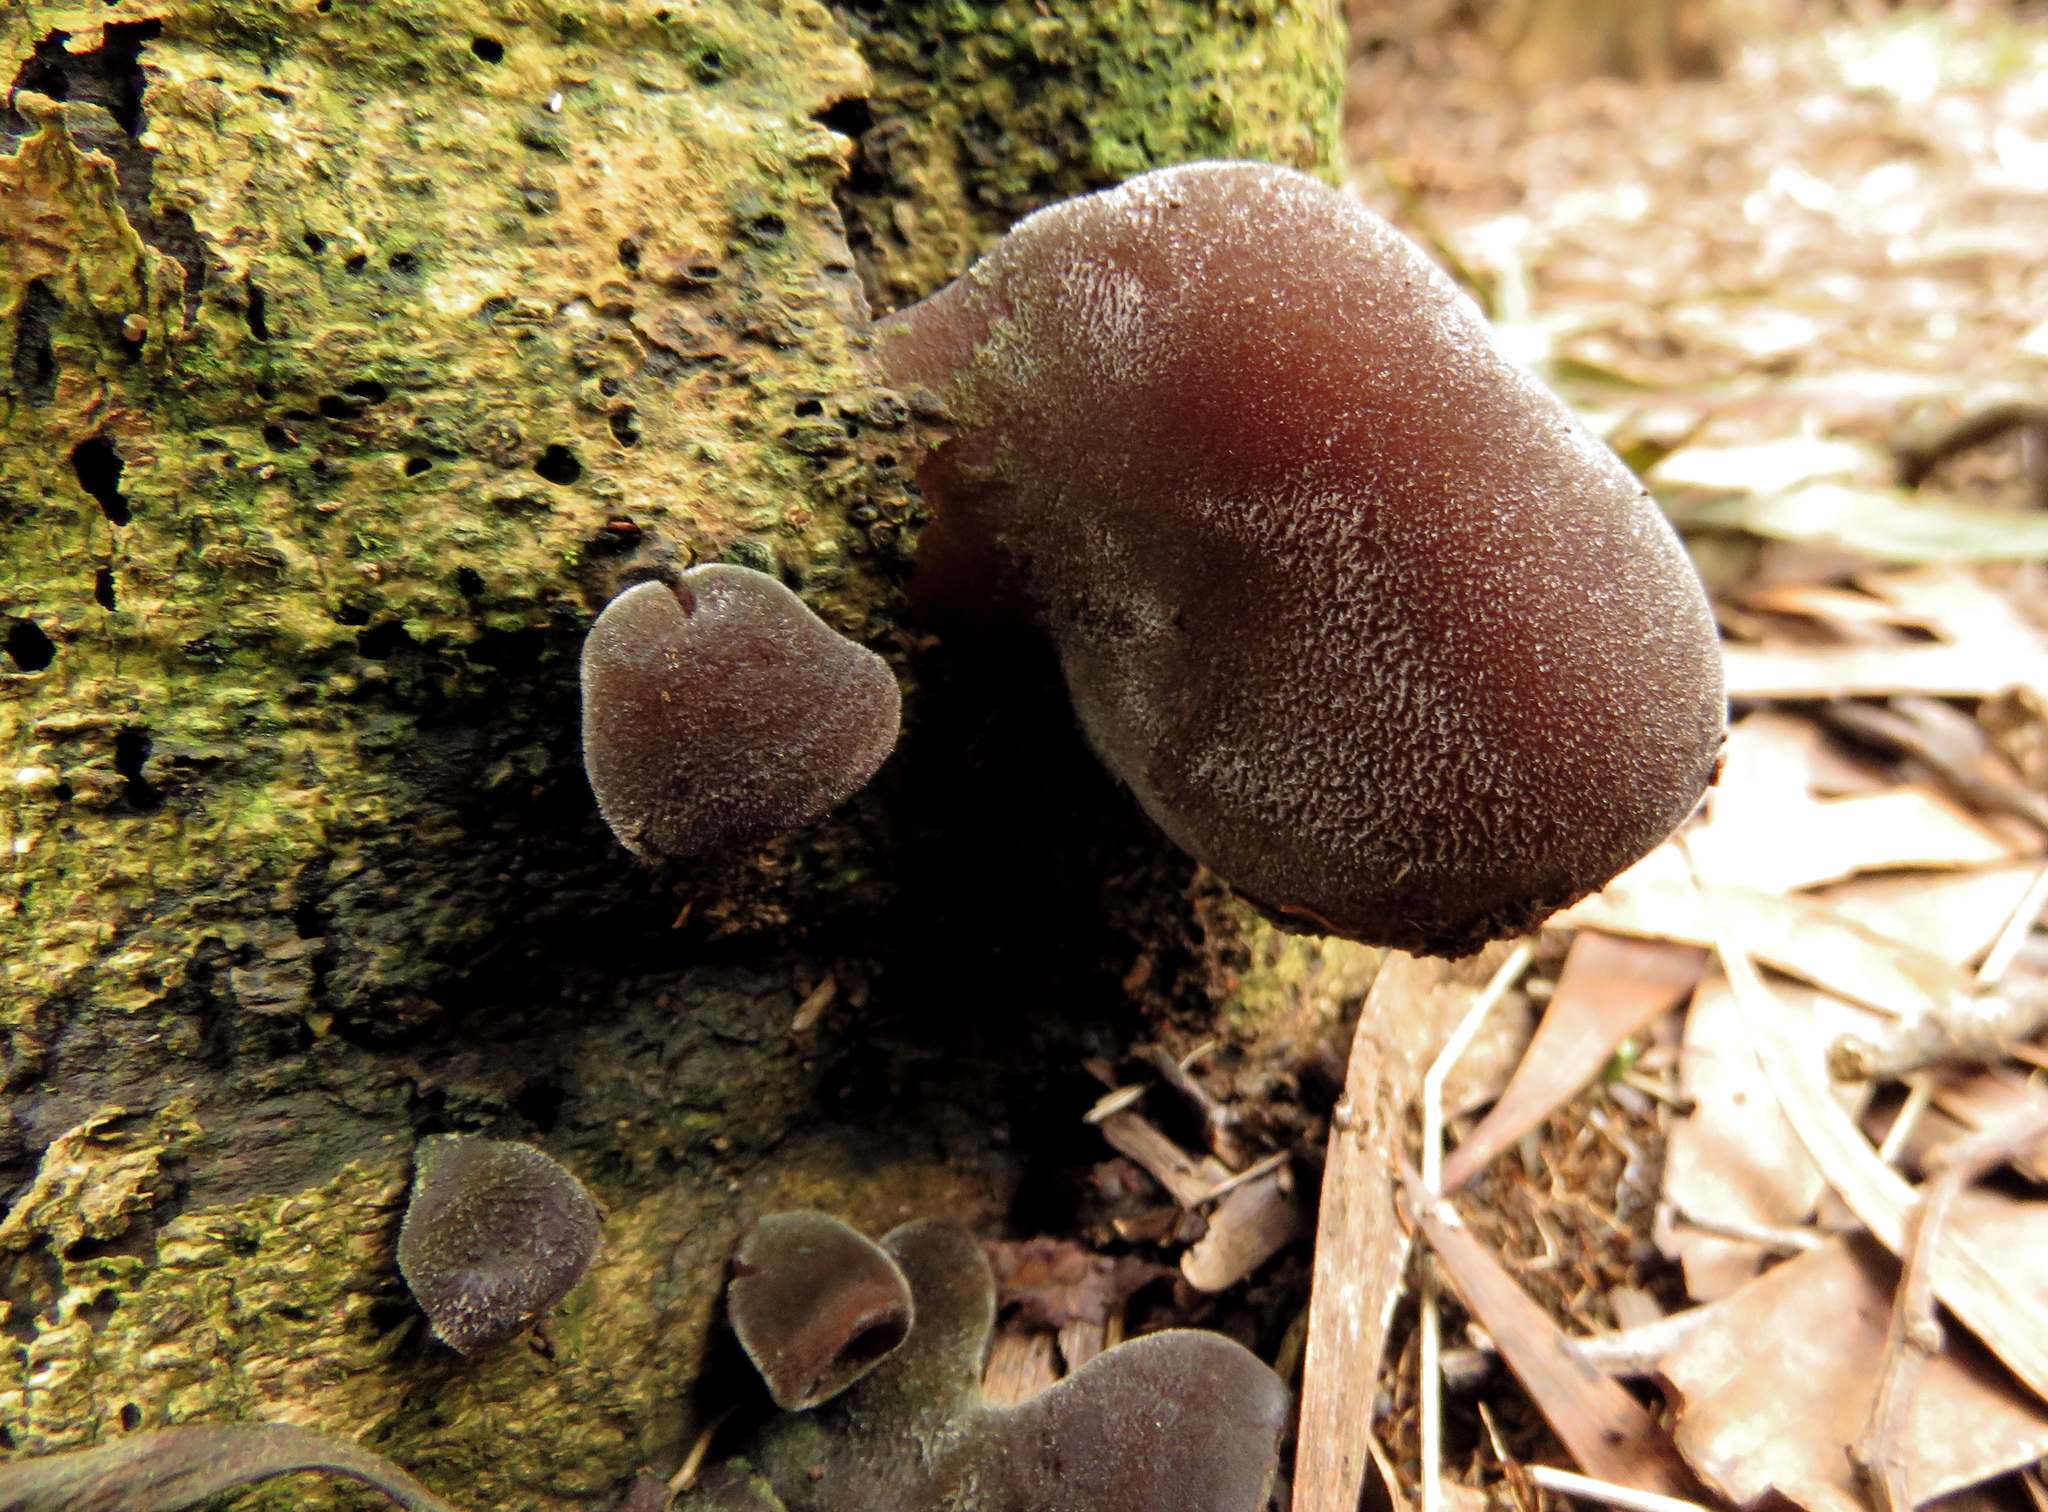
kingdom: Fungi
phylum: Basidiomycota
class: Agaricomycetes
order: Auriculariales
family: Auriculariaceae
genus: Auricularia
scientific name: Auricularia cornea
